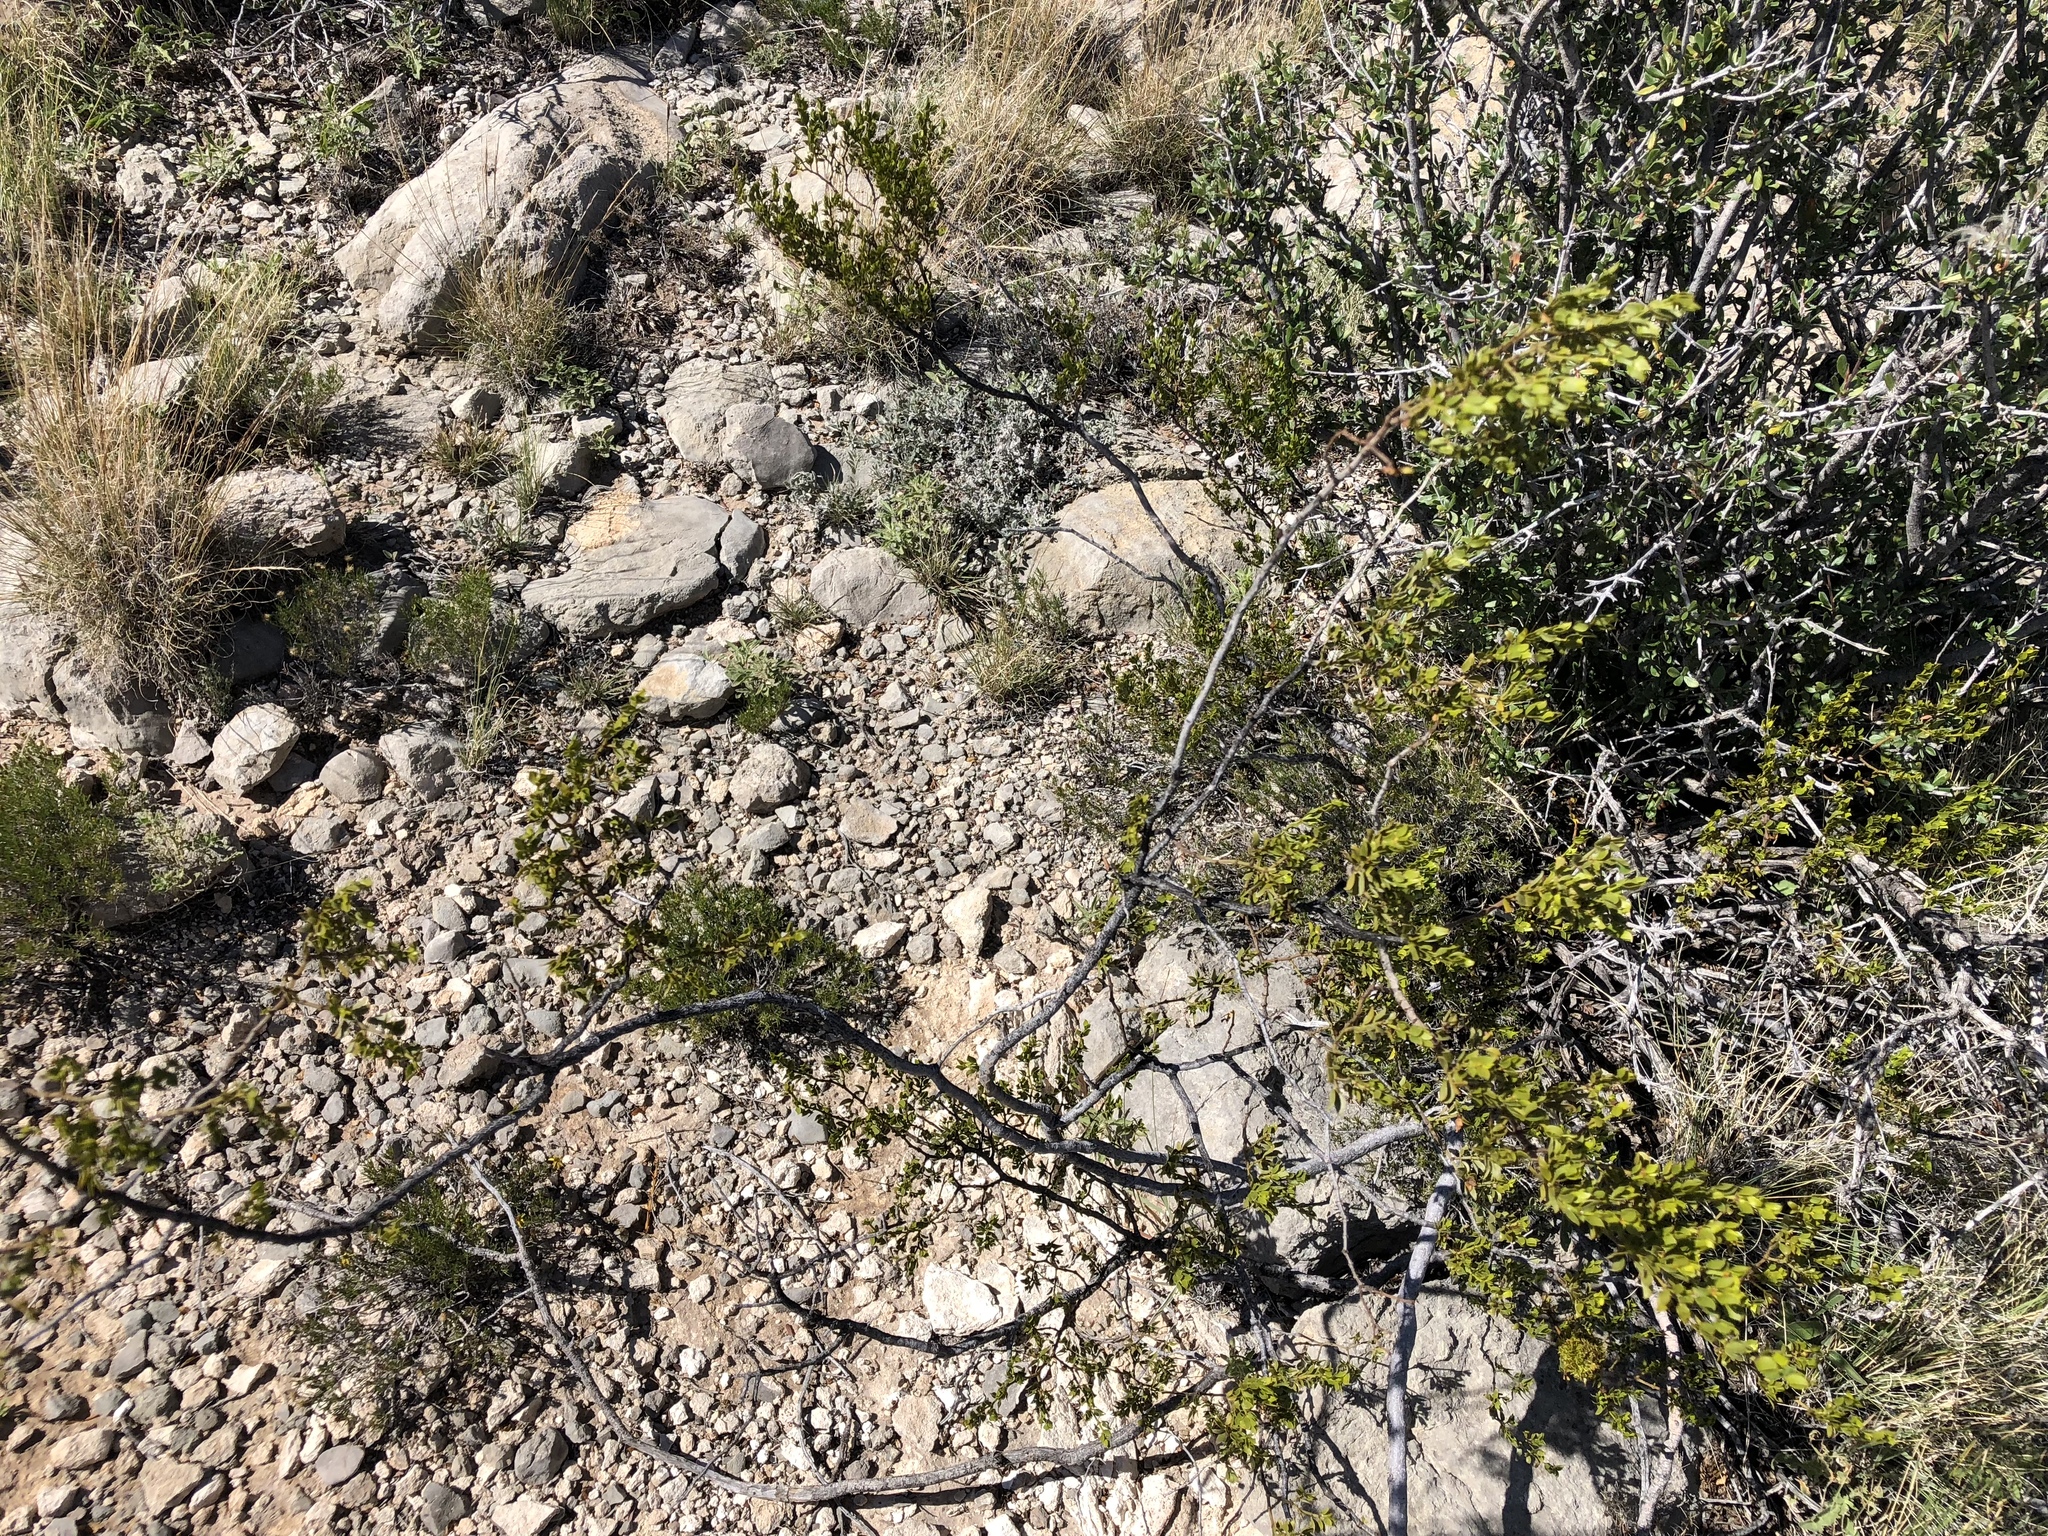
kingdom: Plantae
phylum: Tracheophyta
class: Magnoliopsida
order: Zygophyllales
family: Zygophyllaceae
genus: Larrea
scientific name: Larrea tridentata
